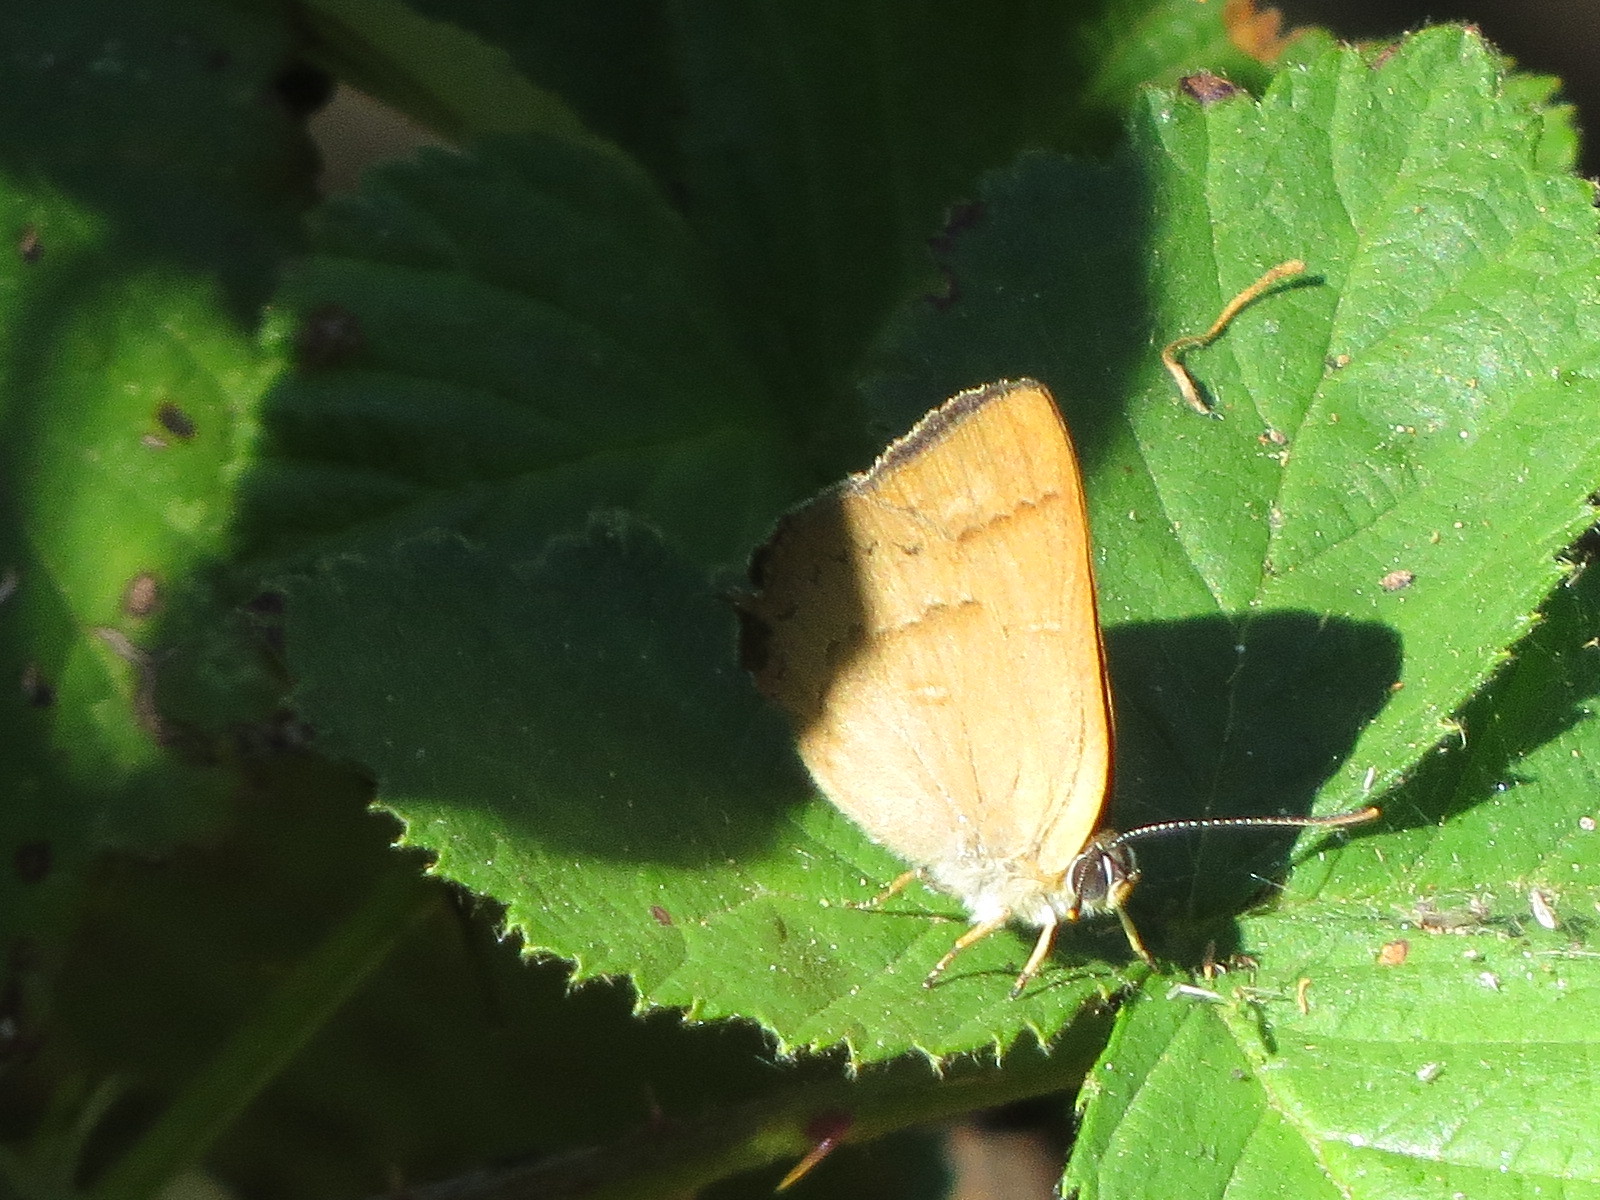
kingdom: Animalia
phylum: Arthropoda
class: Insecta
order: Lepidoptera
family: Lycaenidae
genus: Habrodais
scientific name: Habrodais grunus
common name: Golden hairstreak
